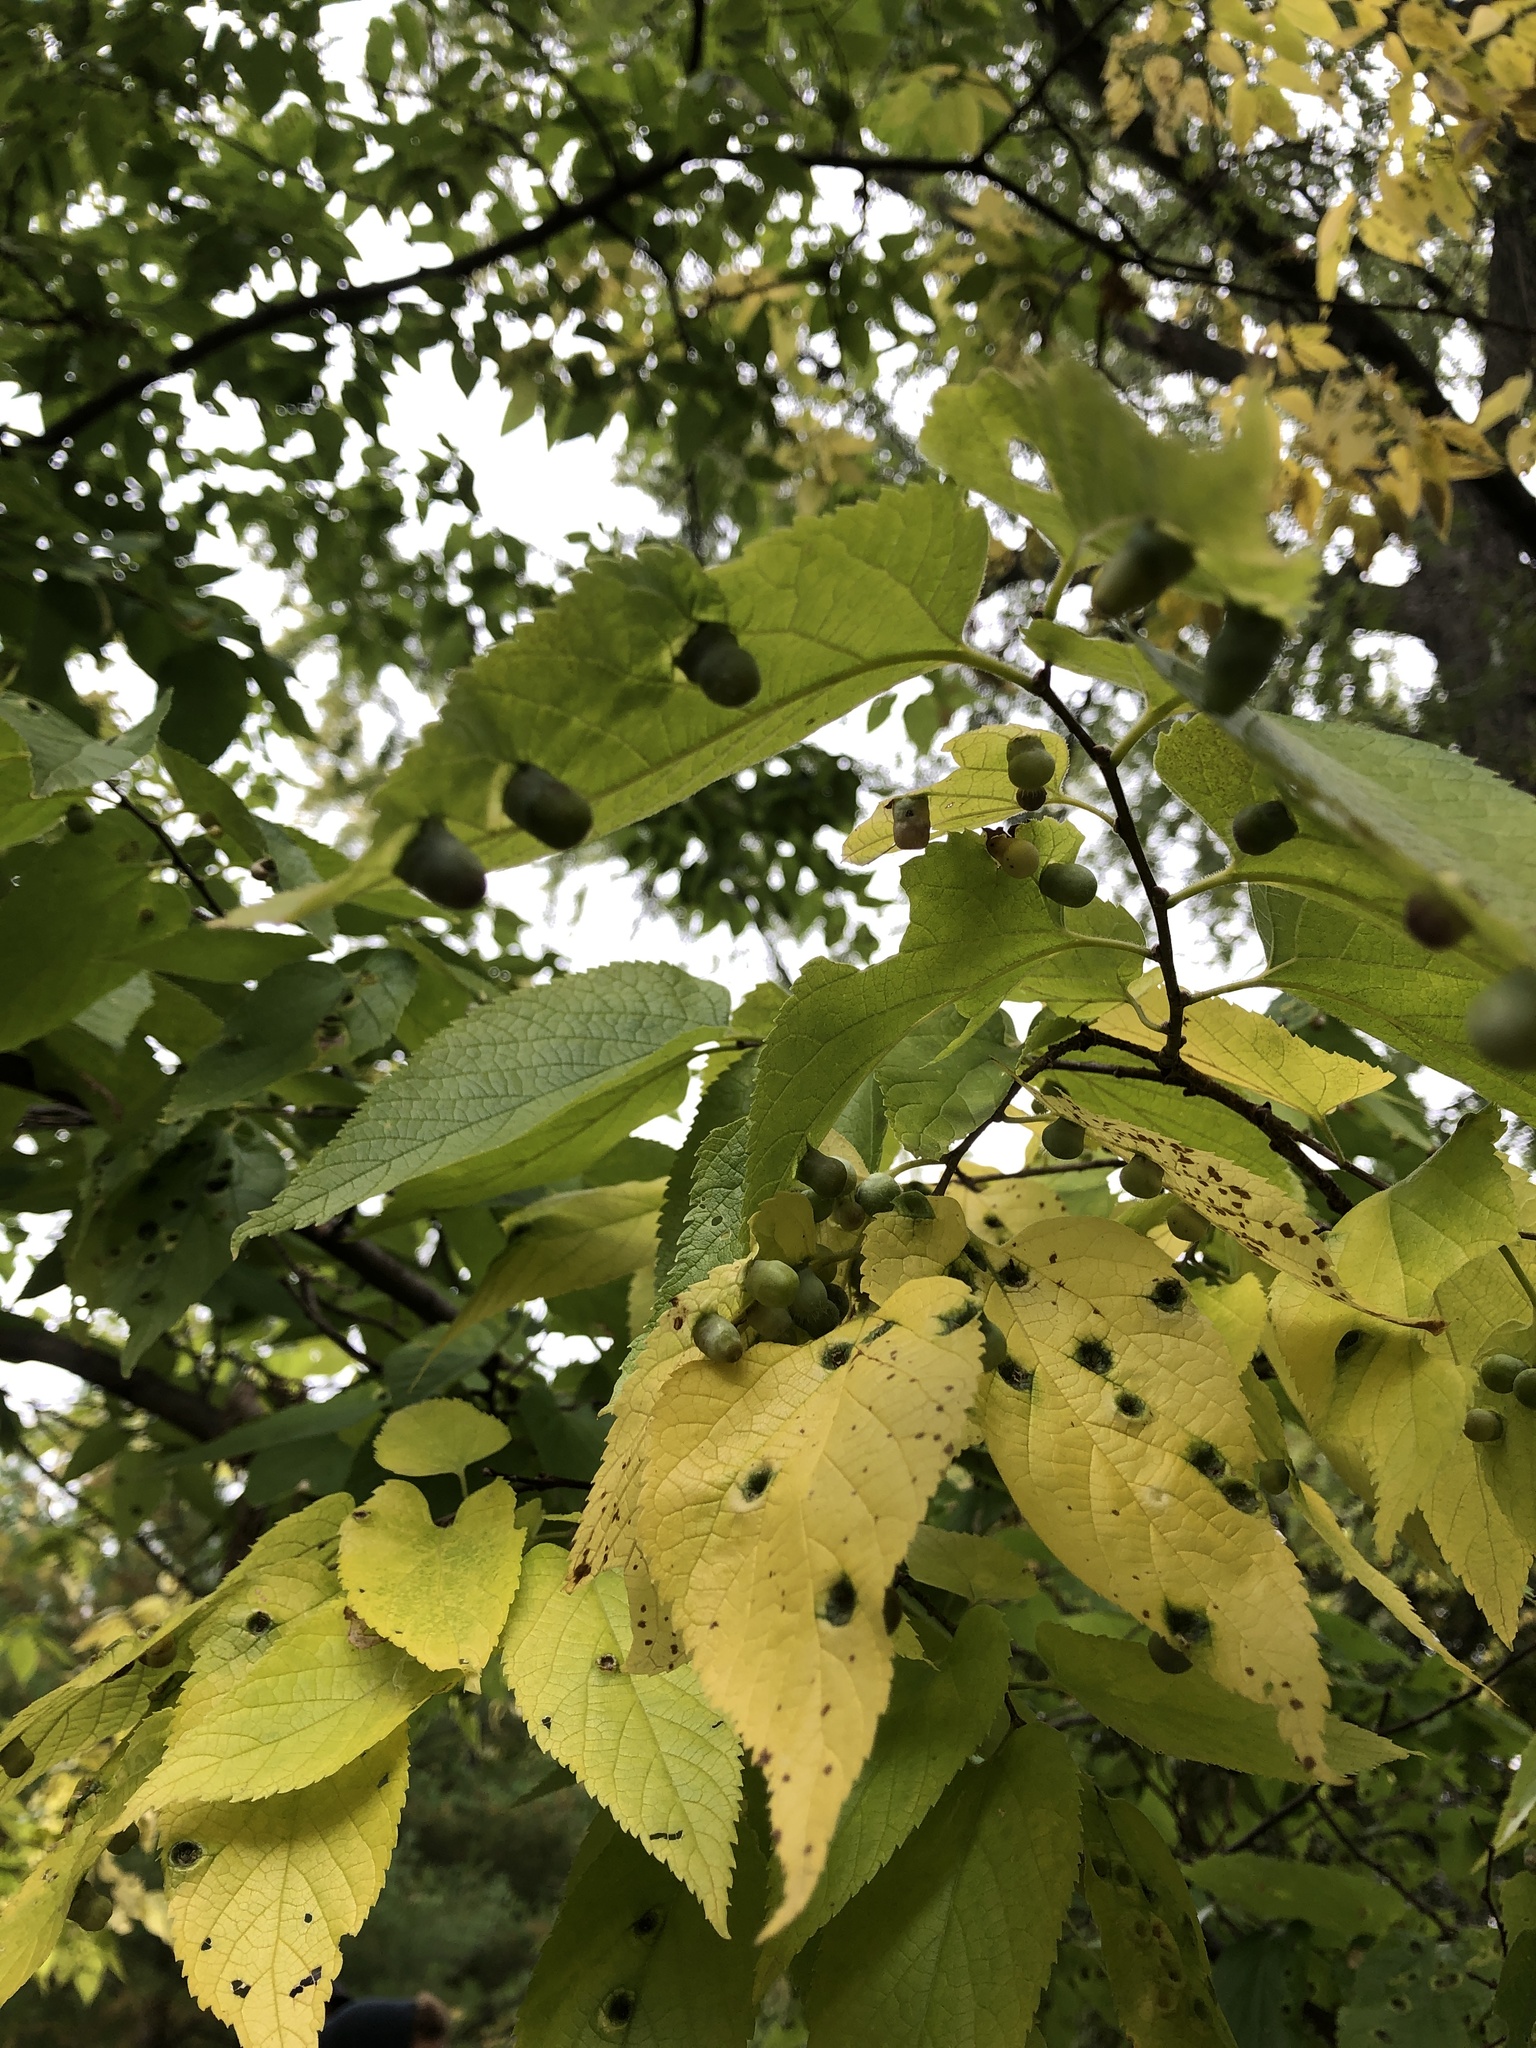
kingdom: Animalia
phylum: Arthropoda
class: Insecta
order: Hemiptera
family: Aphalaridae
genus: Pachypsylla
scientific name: Pachypsylla celtidismamma
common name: Hackberry nipplegall psyllid
